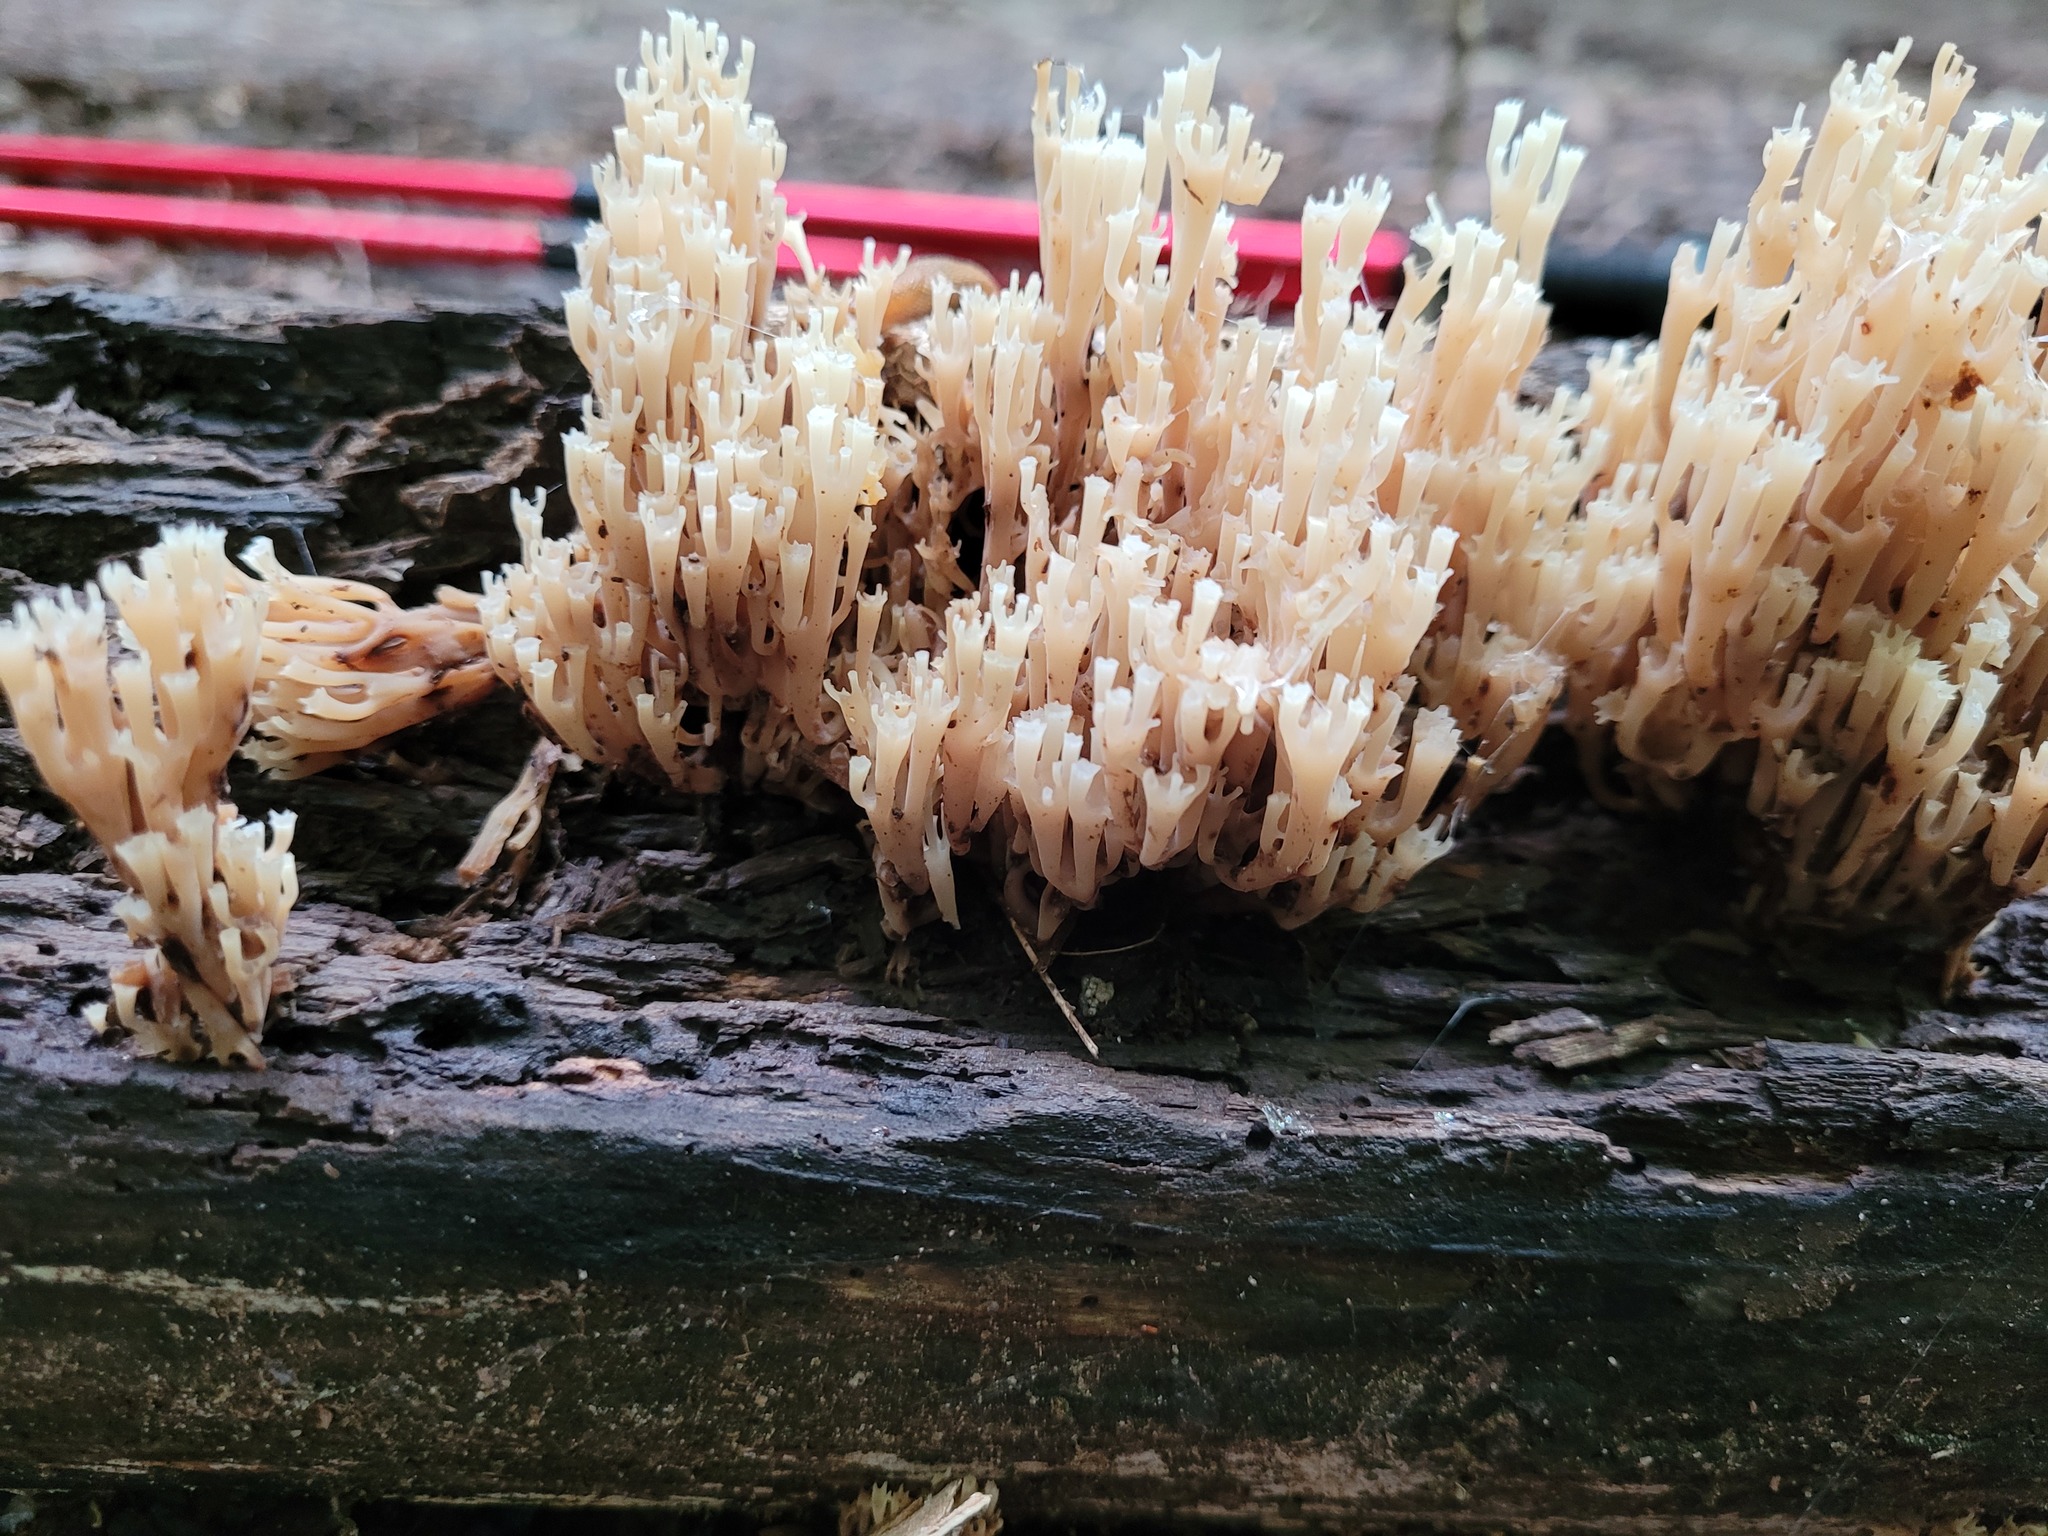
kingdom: Fungi
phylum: Basidiomycota
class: Agaricomycetes
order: Russulales
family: Auriscalpiaceae
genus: Artomyces
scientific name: Artomyces pyxidatus
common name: Crown-tipped coral fungus
